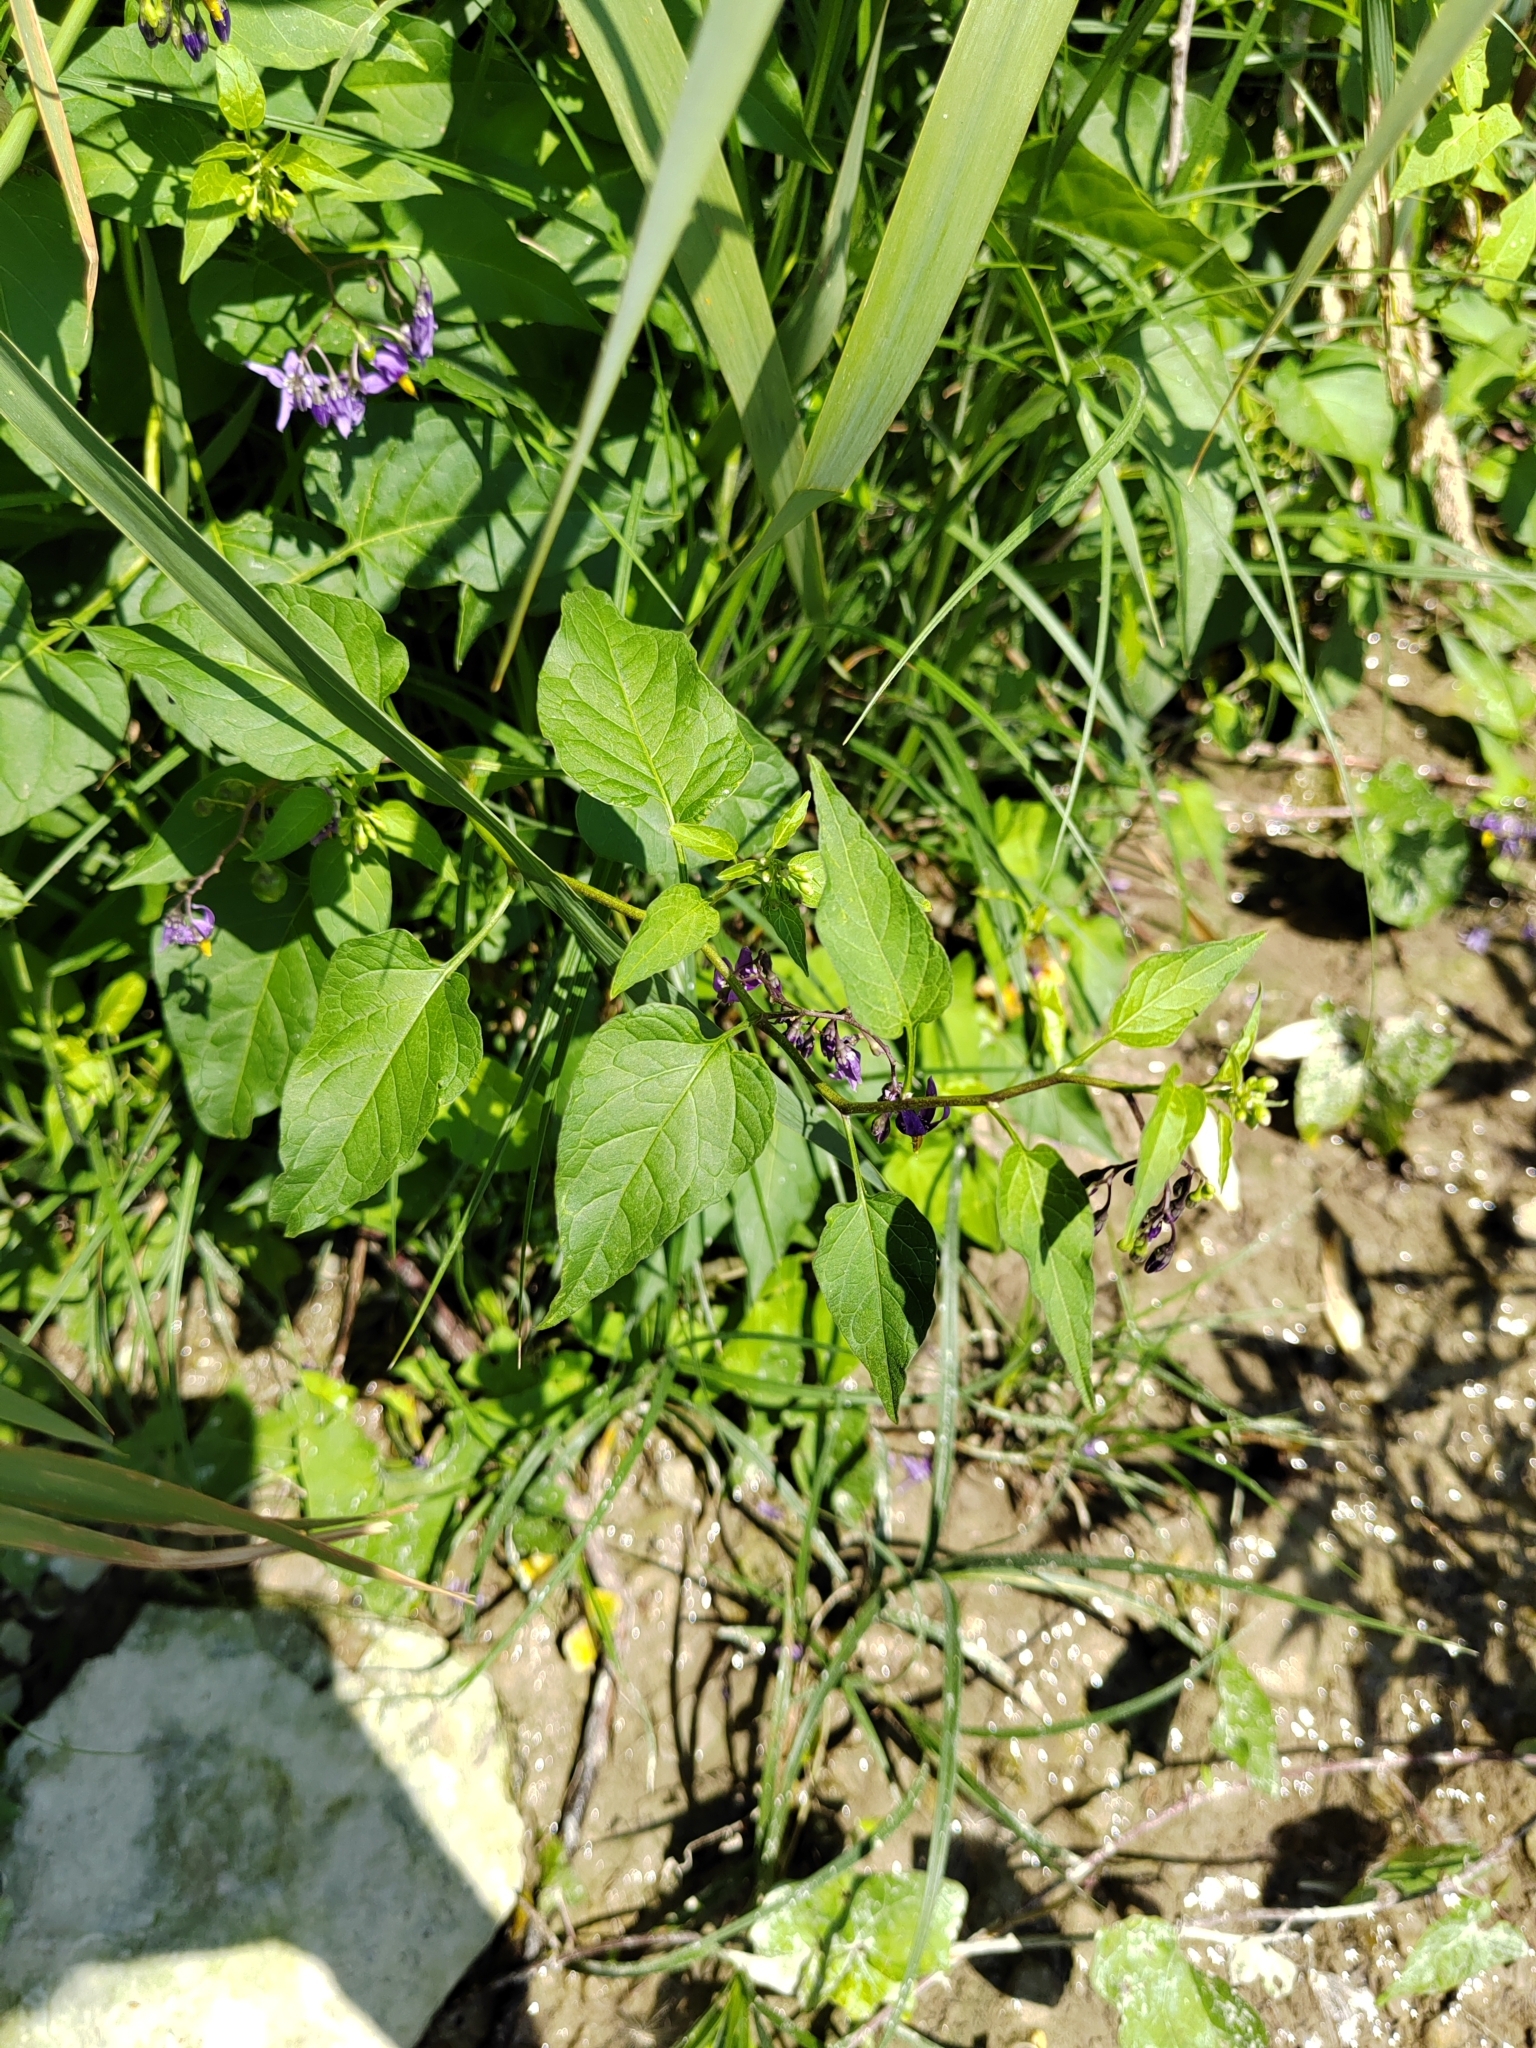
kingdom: Plantae
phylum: Tracheophyta
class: Magnoliopsida
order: Solanales
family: Solanaceae
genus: Solanum
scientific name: Solanum dulcamara
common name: Climbing nightshade
